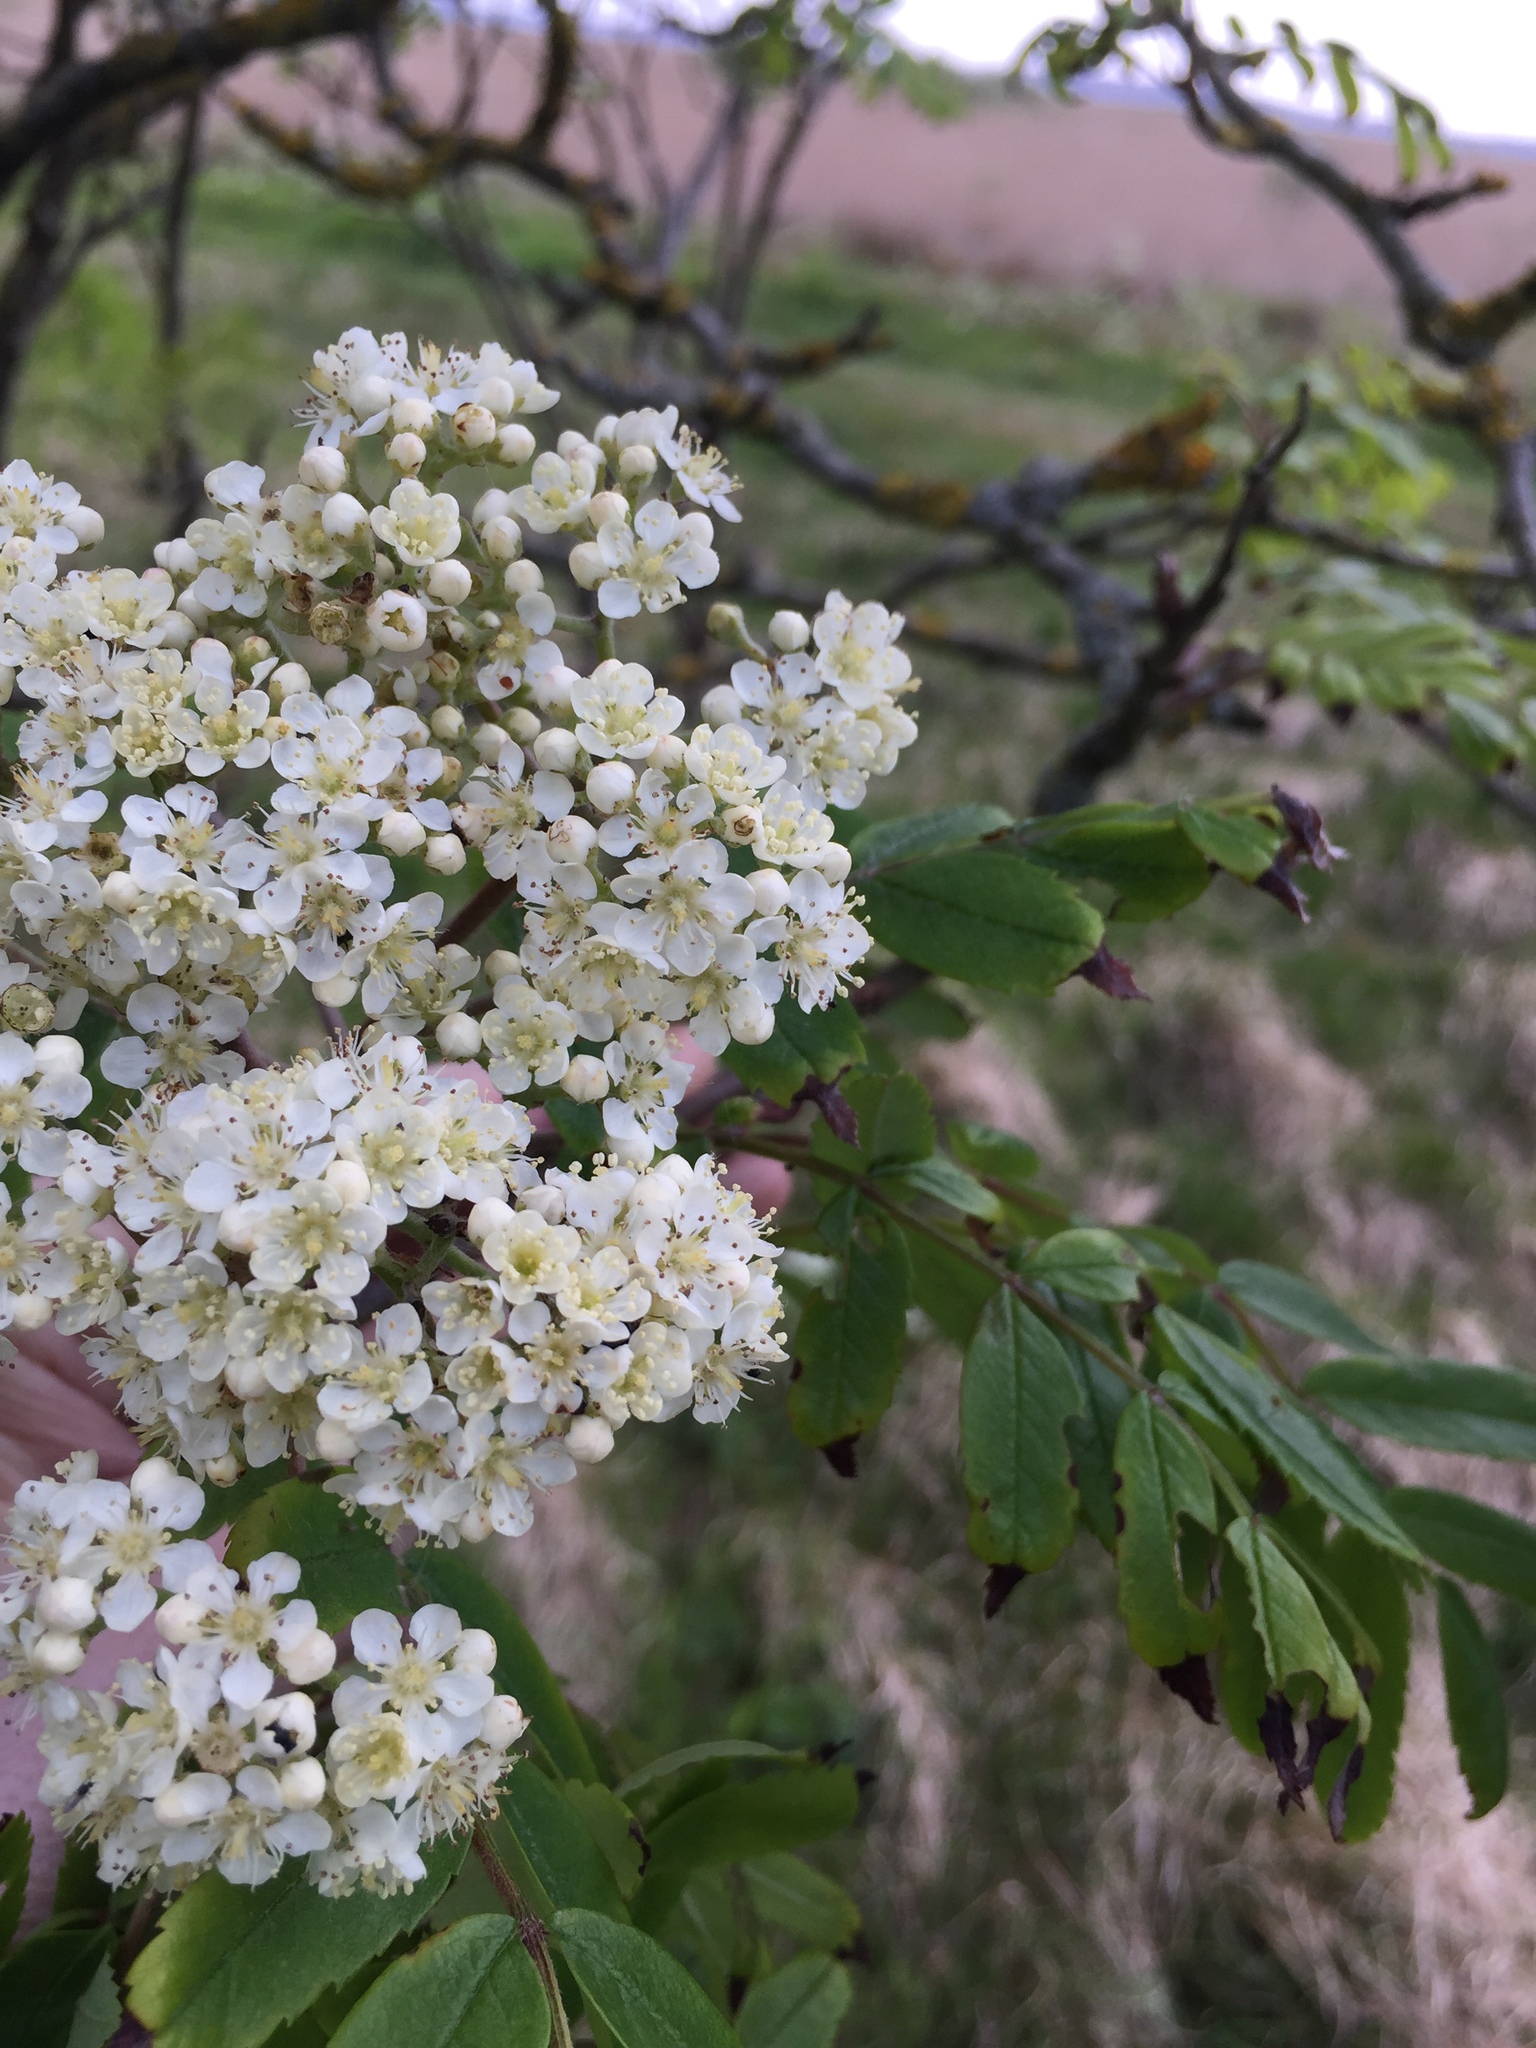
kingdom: Plantae
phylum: Tracheophyta
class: Magnoliopsida
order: Rosales
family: Rosaceae
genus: Sorbus
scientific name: Sorbus aucuparia
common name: Rowan
